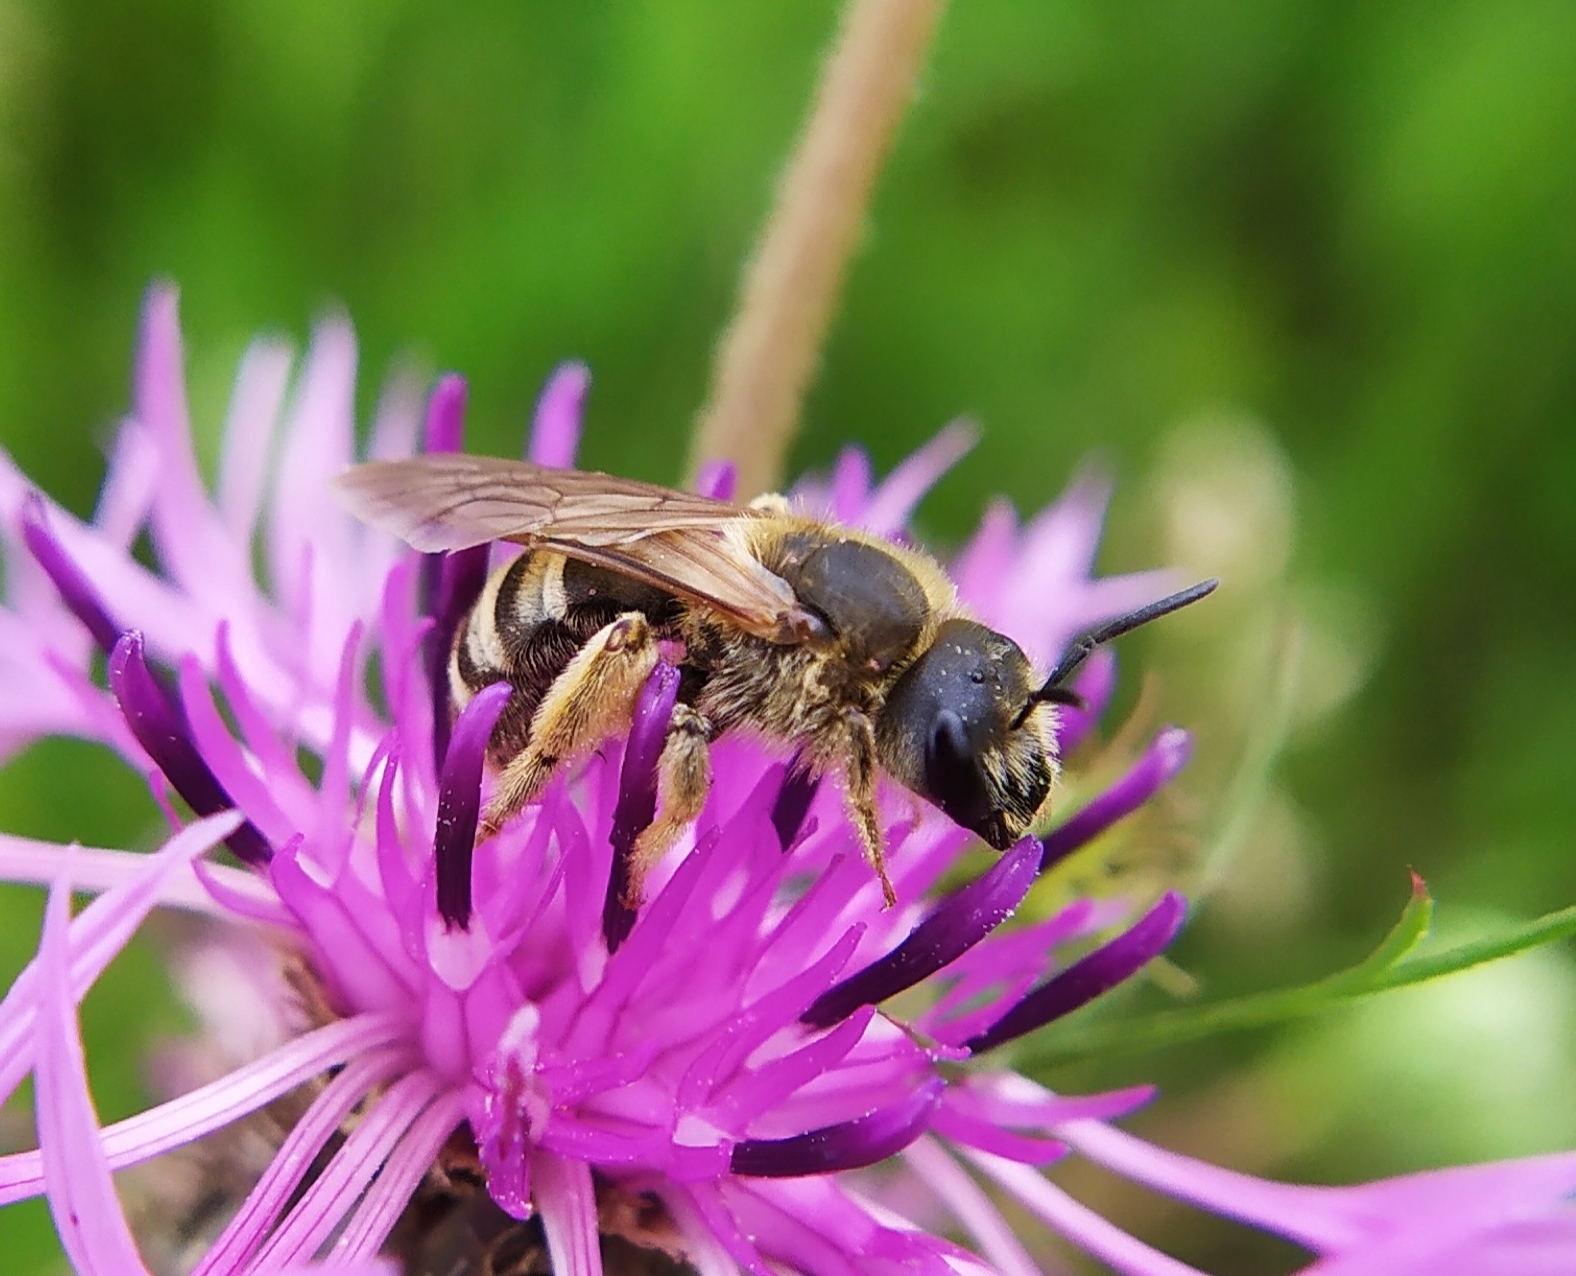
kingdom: Animalia
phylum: Arthropoda
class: Insecta
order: Hymenoptera
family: Halictidae
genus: Halictus
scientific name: Halictus scabiosae
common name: Great banded furrow bee
